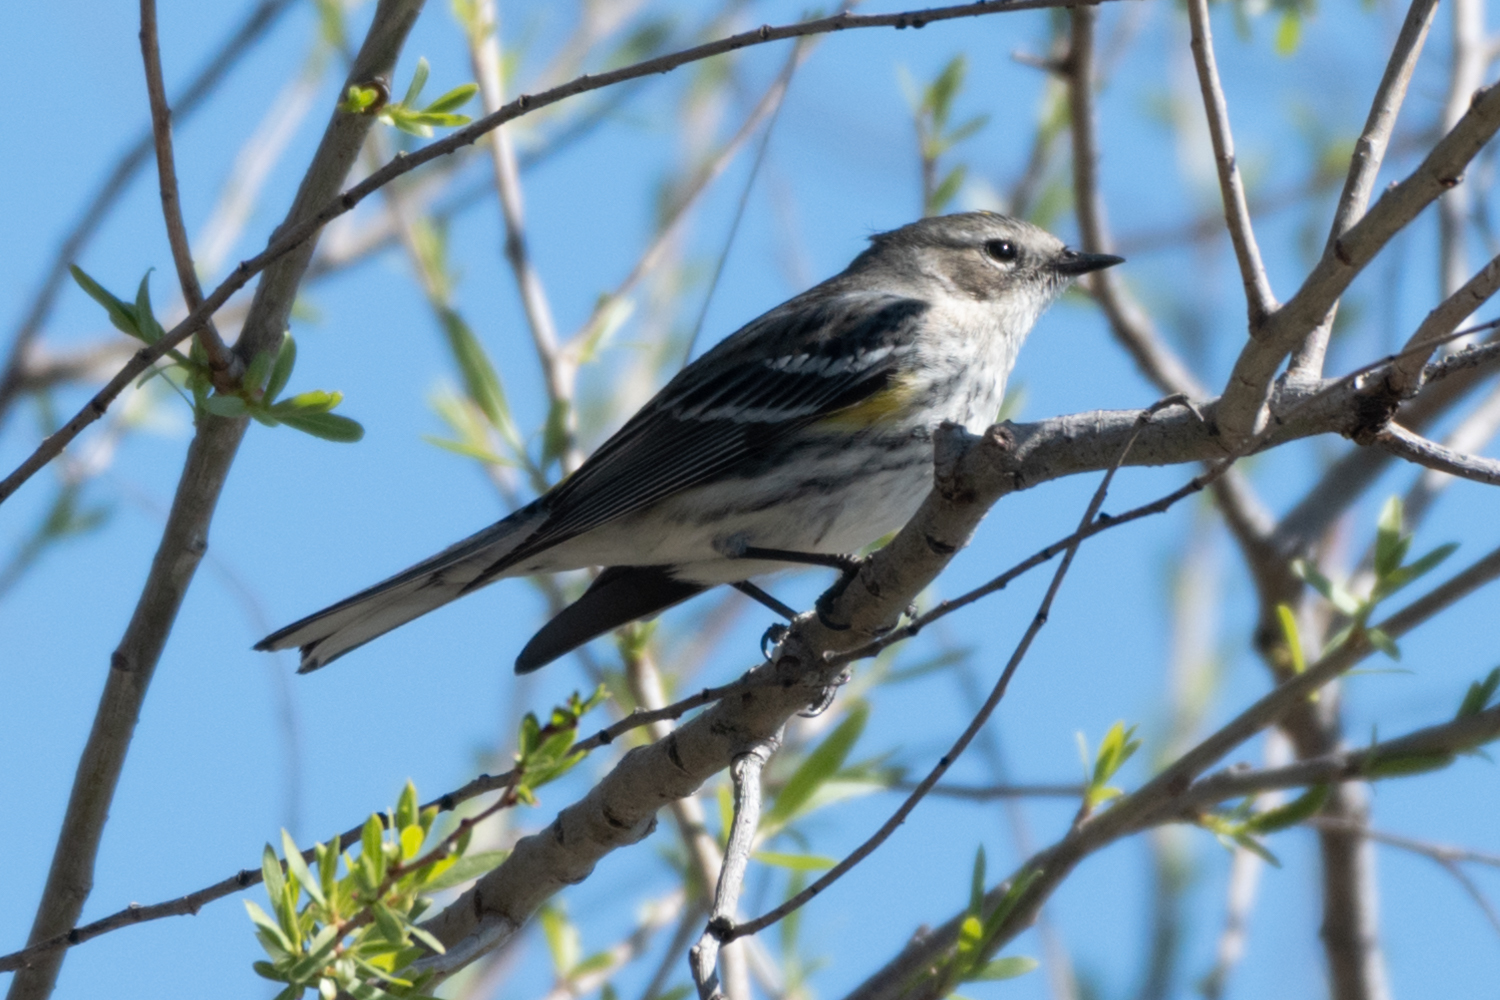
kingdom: Animalia
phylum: Chordata
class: Aves
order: Passeriformes
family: Parulidae
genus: Setophaga
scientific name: Setophaga coronata
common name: Myrtle warbler
